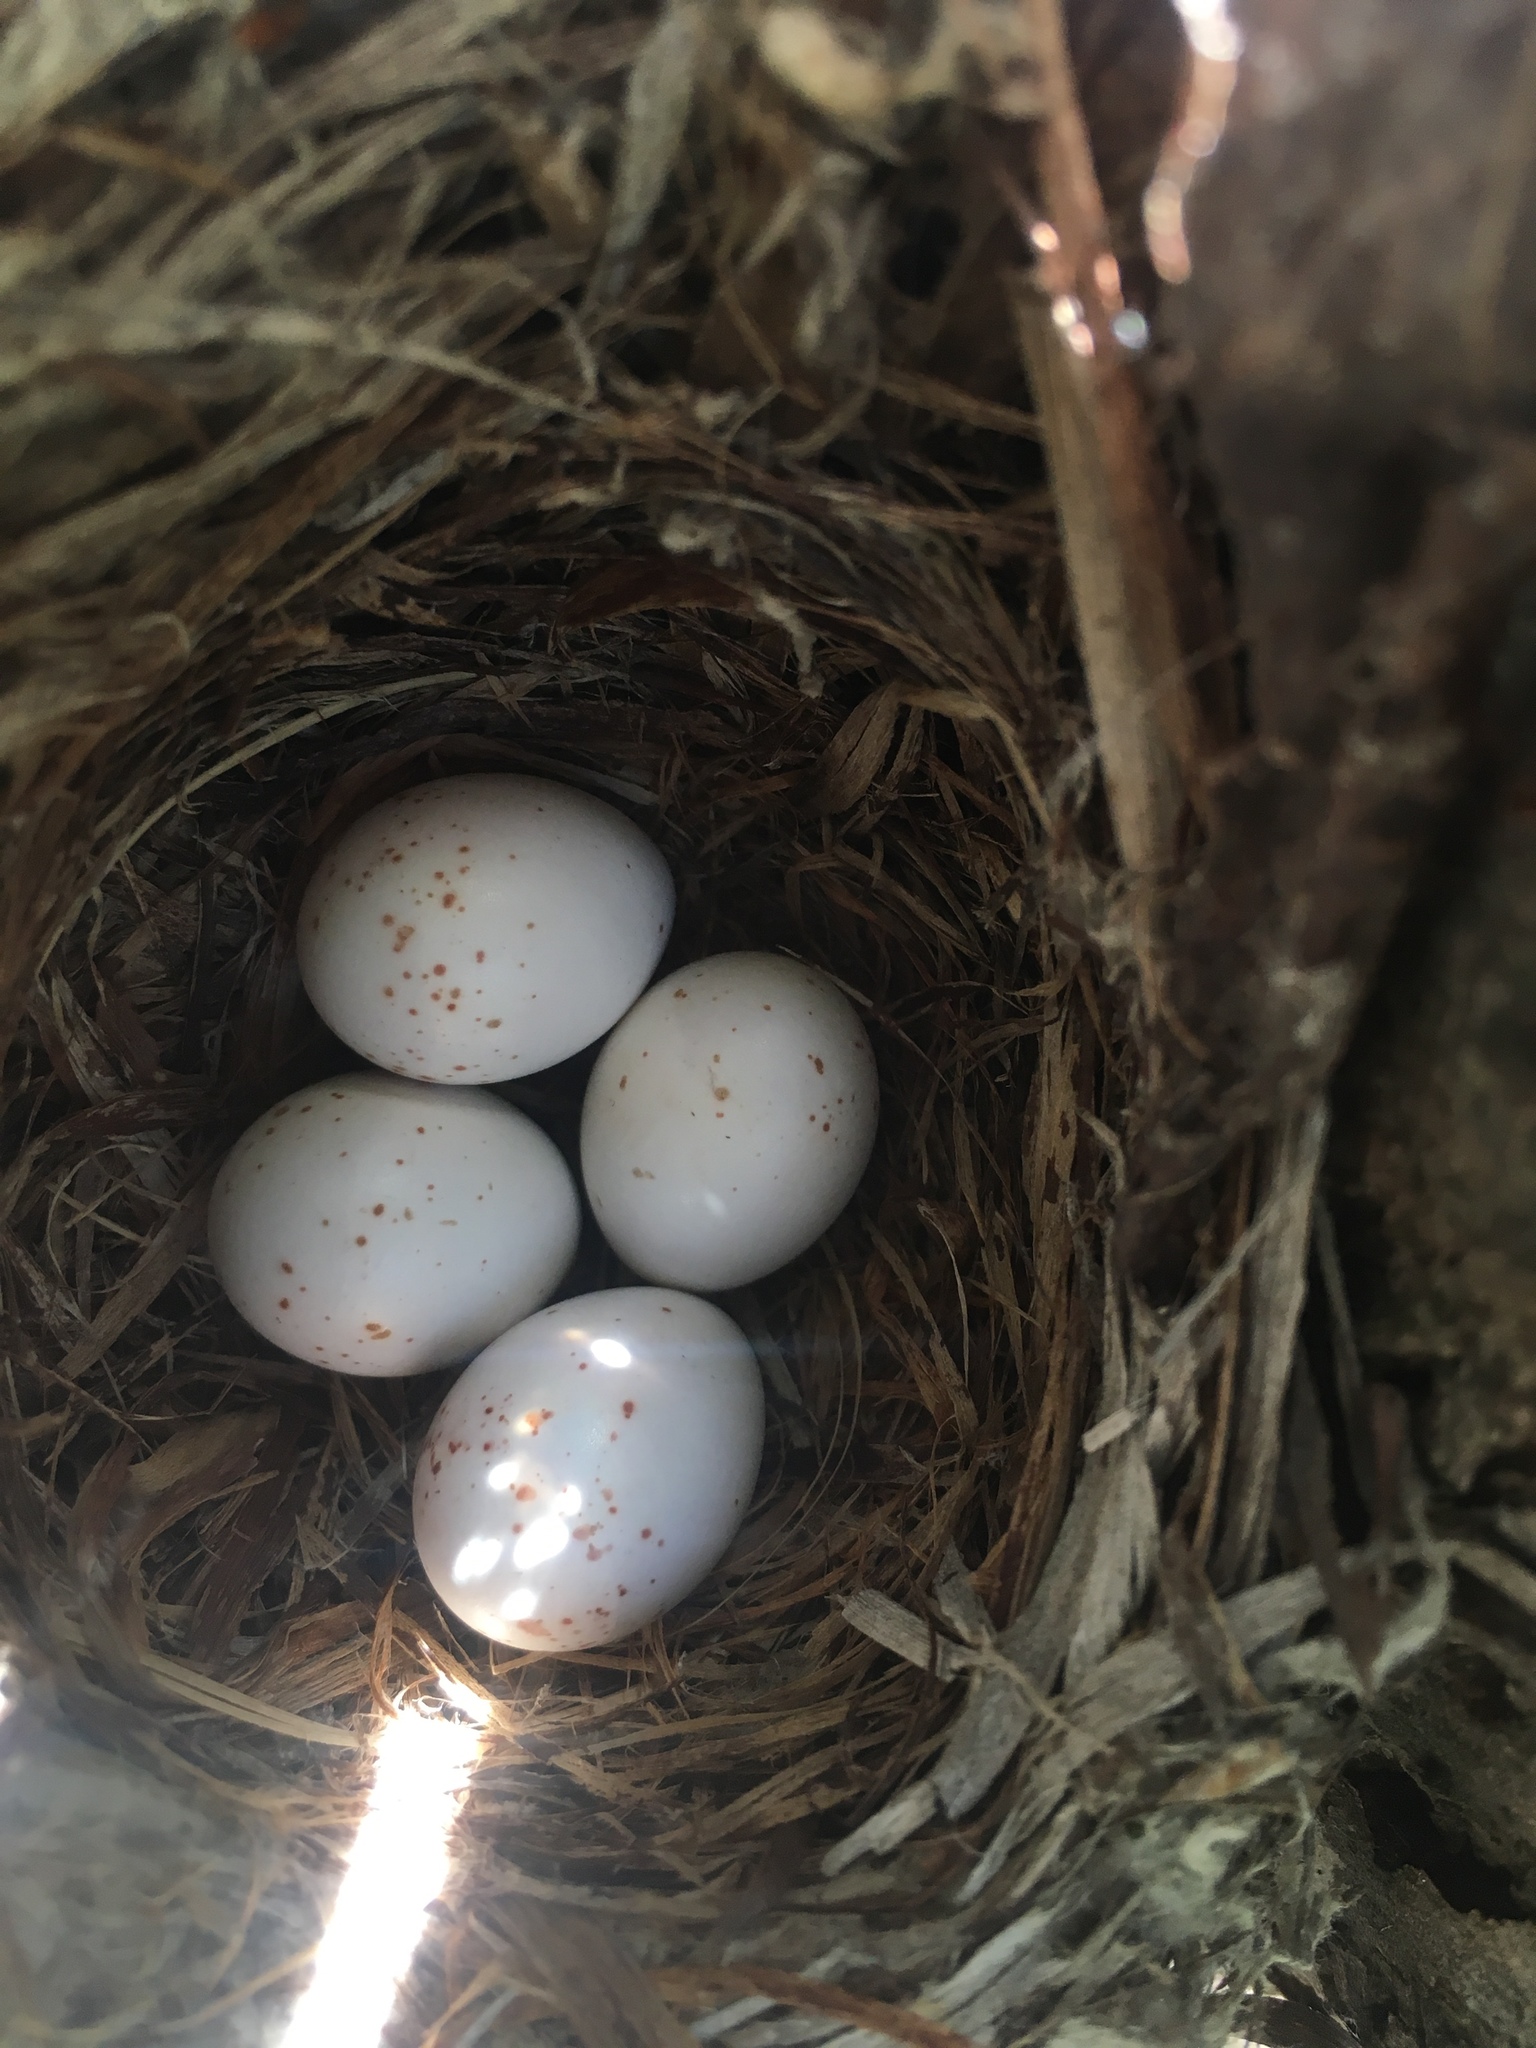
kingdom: Animalia
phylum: Chordata
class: Aves
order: Passeriformes
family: Tyrannidae
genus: Empidonax
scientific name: Empidonax difficilis
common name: Pacific-slope flycatcher
